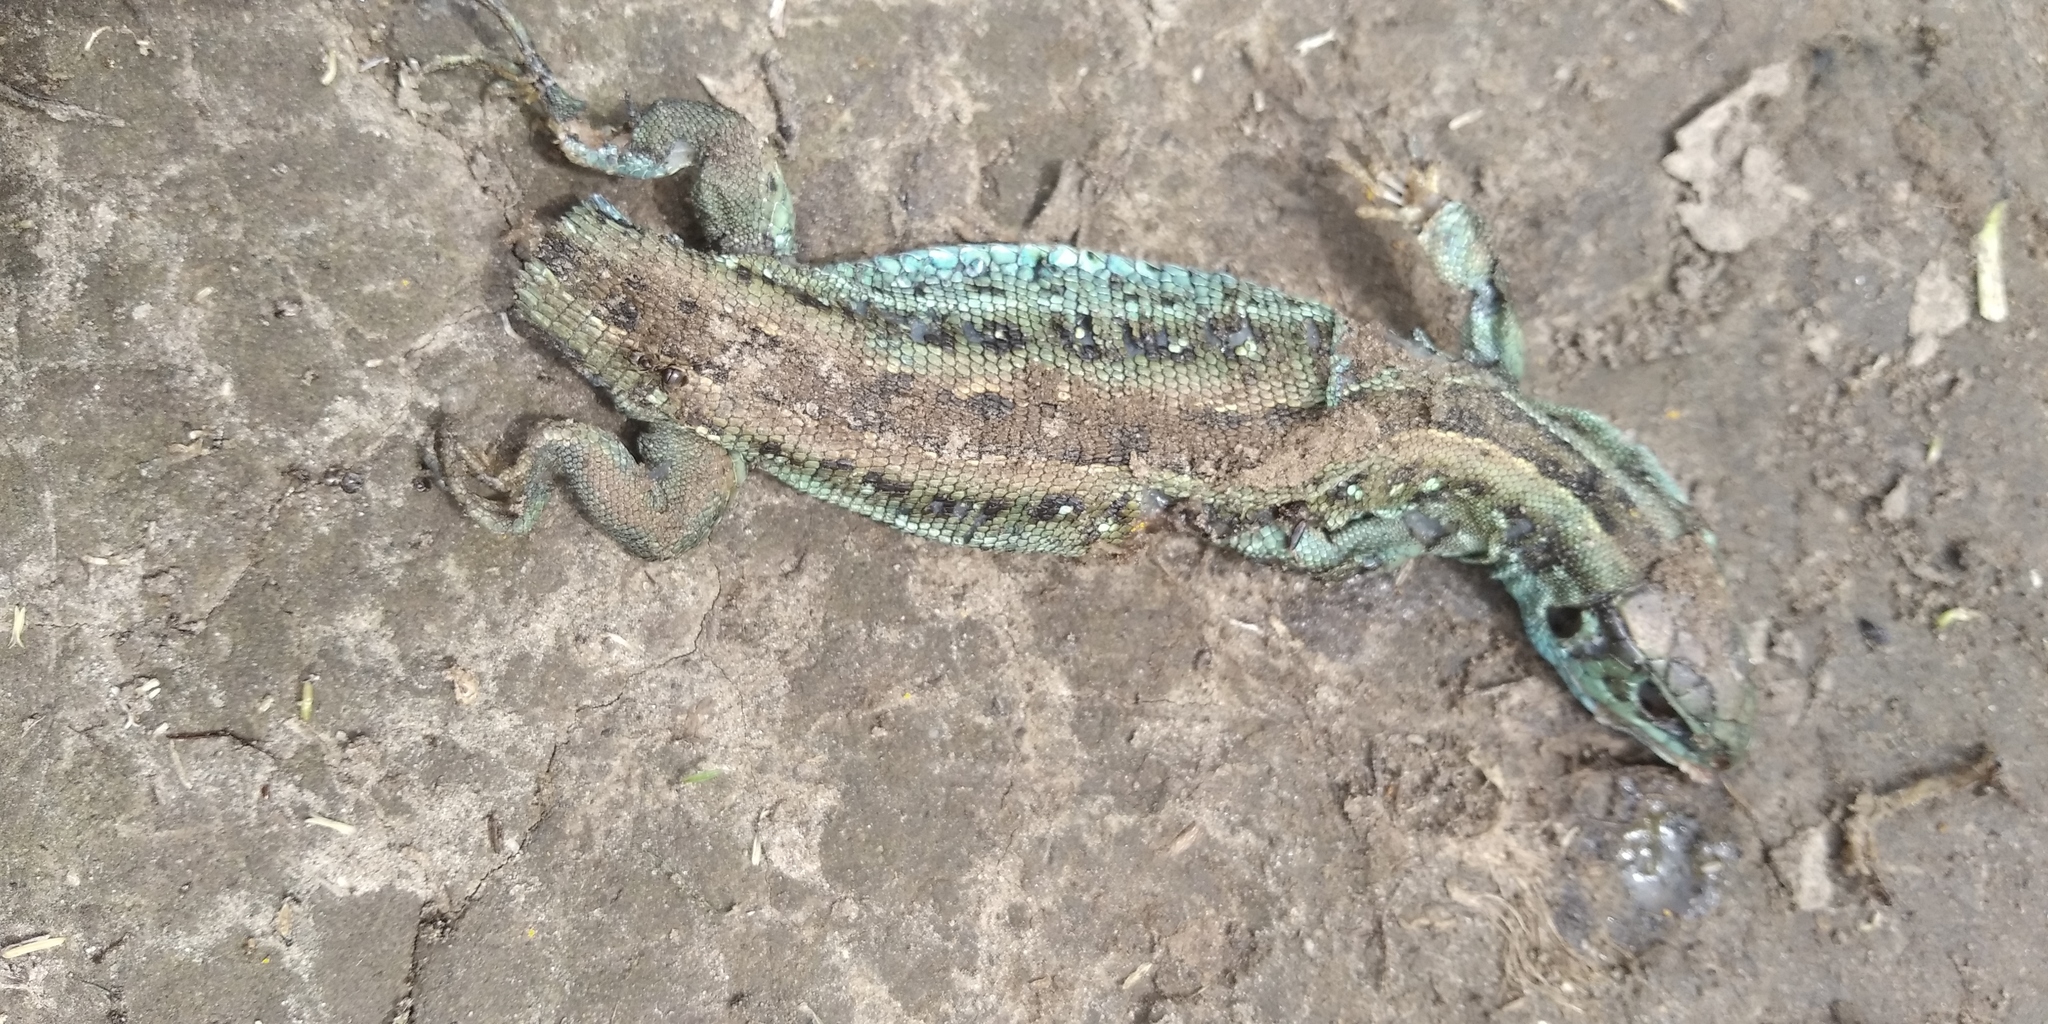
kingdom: Animalia
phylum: Chordata
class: Squamata
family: Lacertidae
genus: Lacerta
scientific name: Lacerta agilis
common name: Sand lizard
